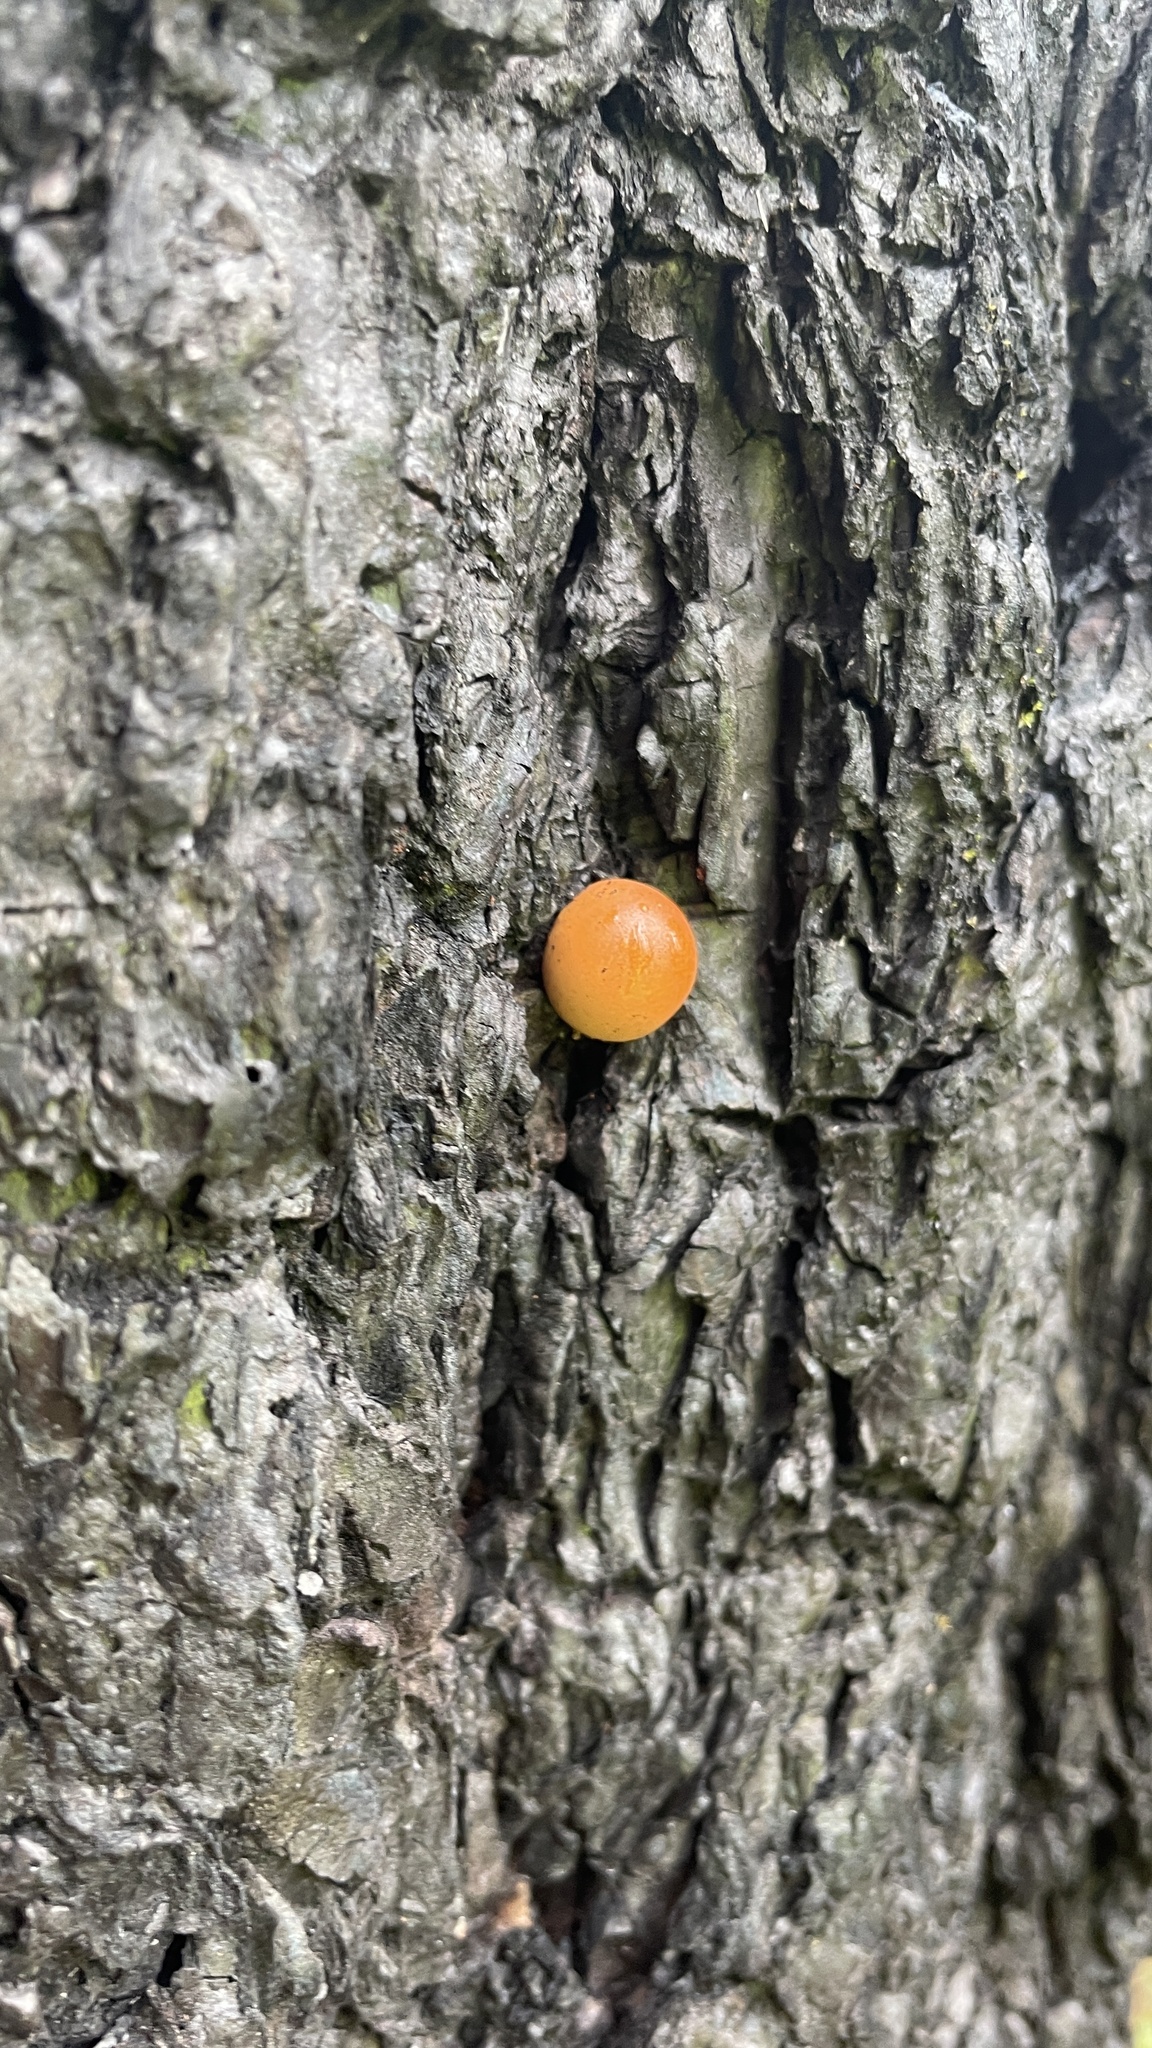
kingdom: Fungi
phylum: Basidiomycota
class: Agaricomycetes
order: Polyporales
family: Polyporaceae
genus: Cryptoporus
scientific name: Cryptoporus volvatus
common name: Veiled polypore
